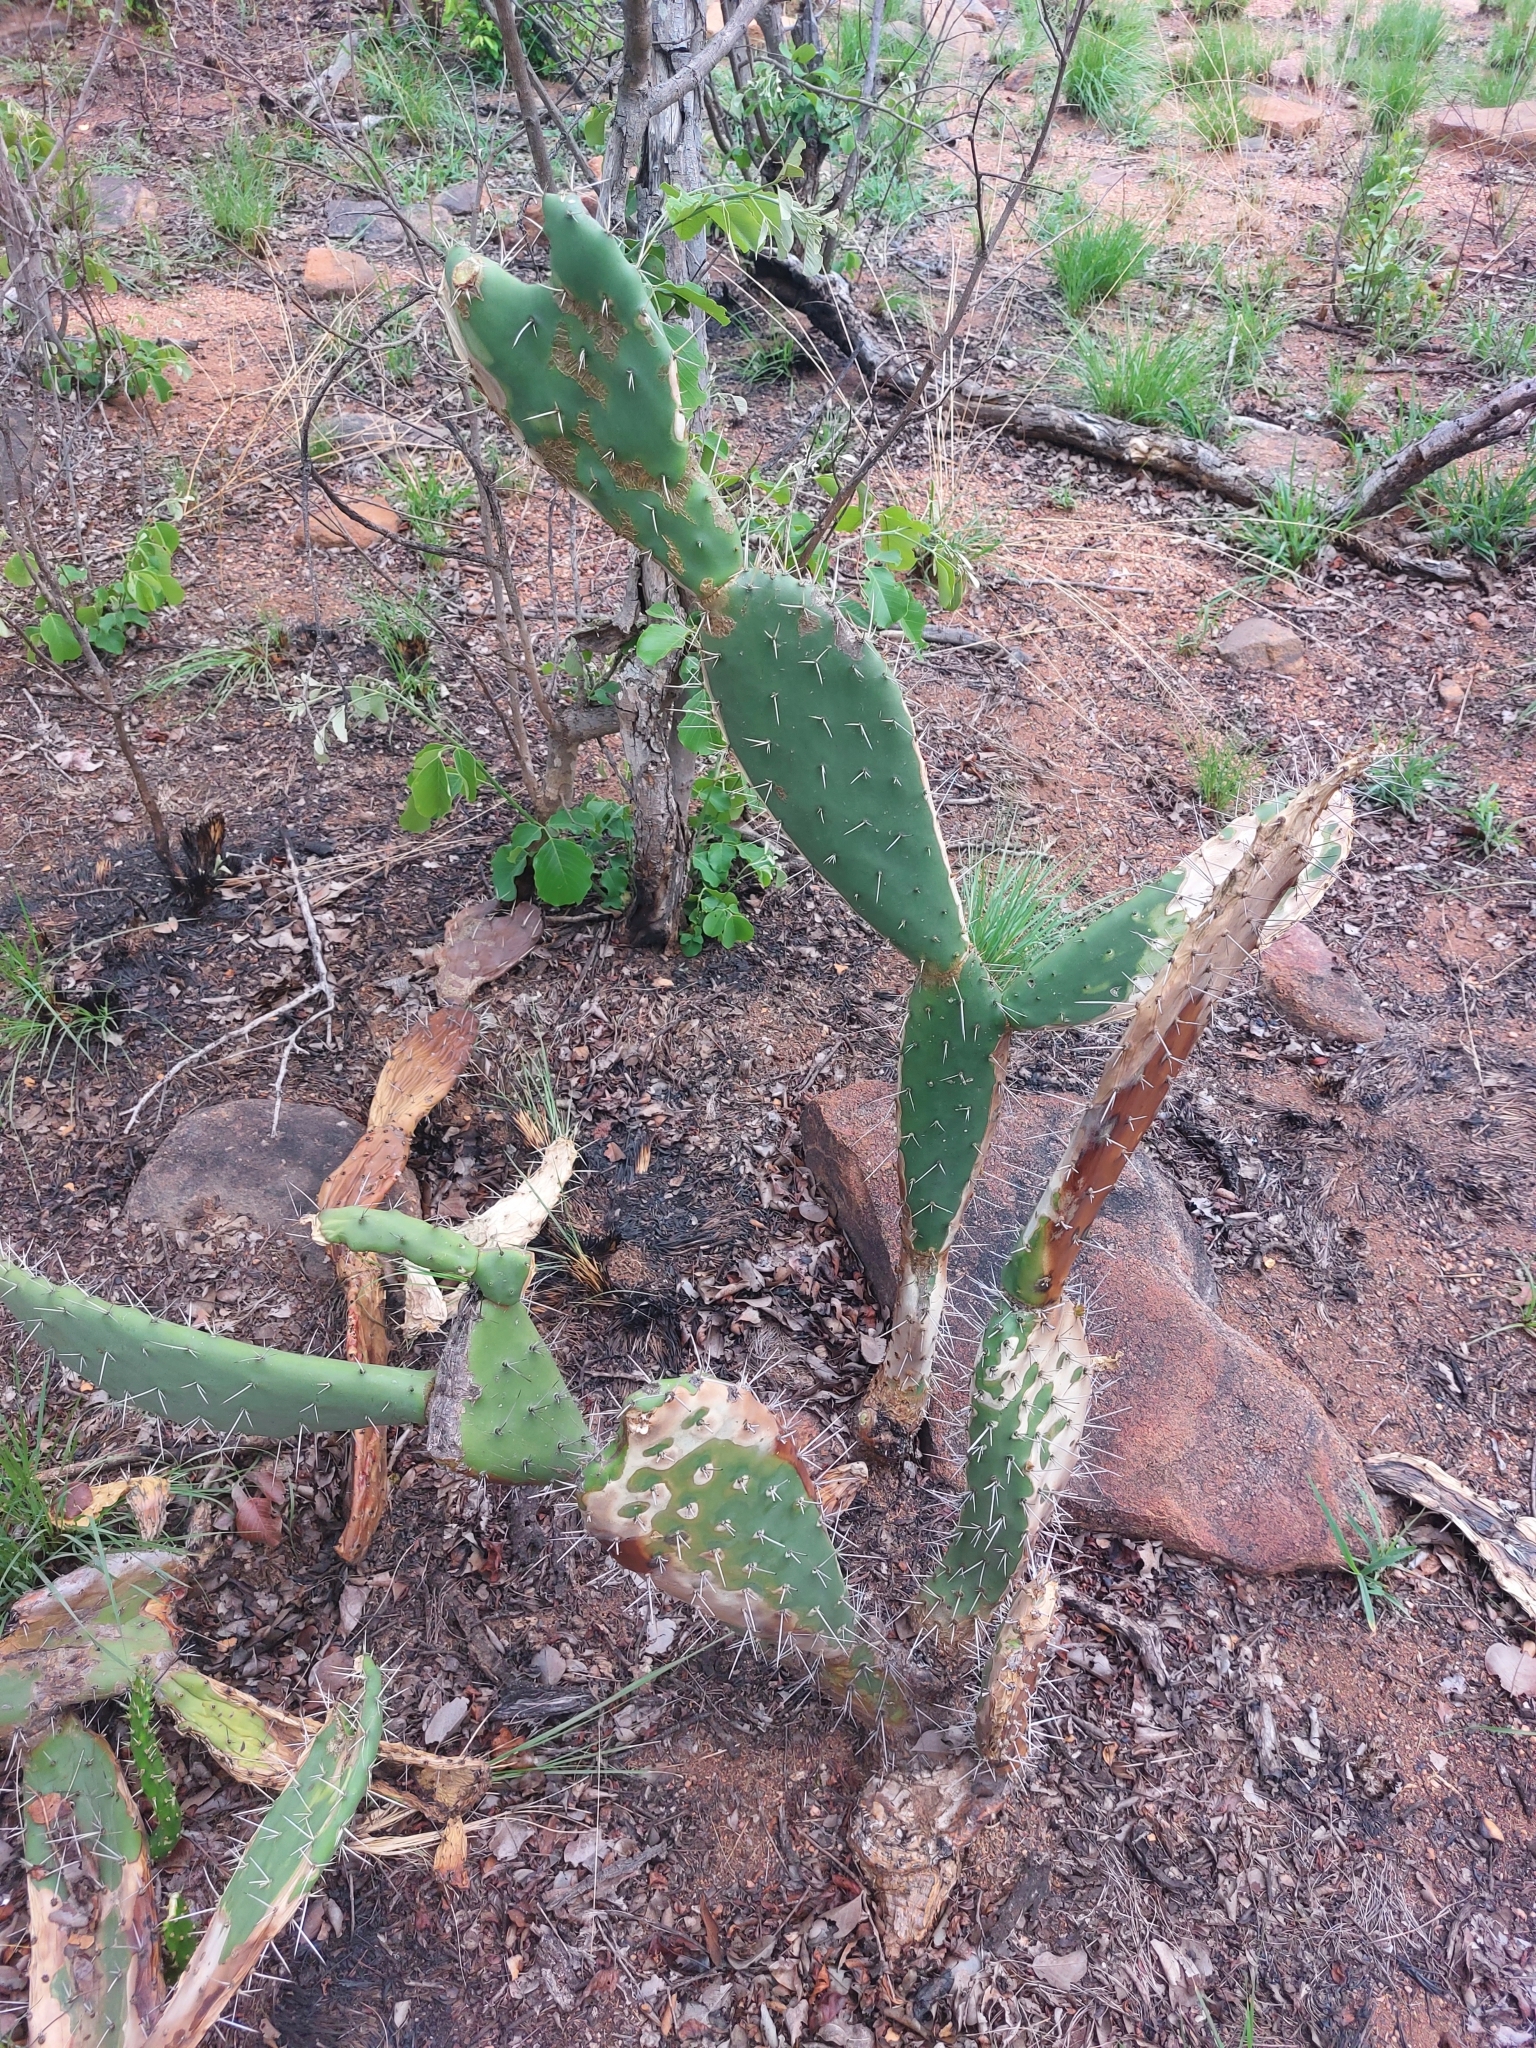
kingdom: Plantae
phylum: Tracheophyta
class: Magnoliopsida
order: Caryophyllales
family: Cactaceae
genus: Opuntia
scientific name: Opuntia ficus-indica
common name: Barbary fig
